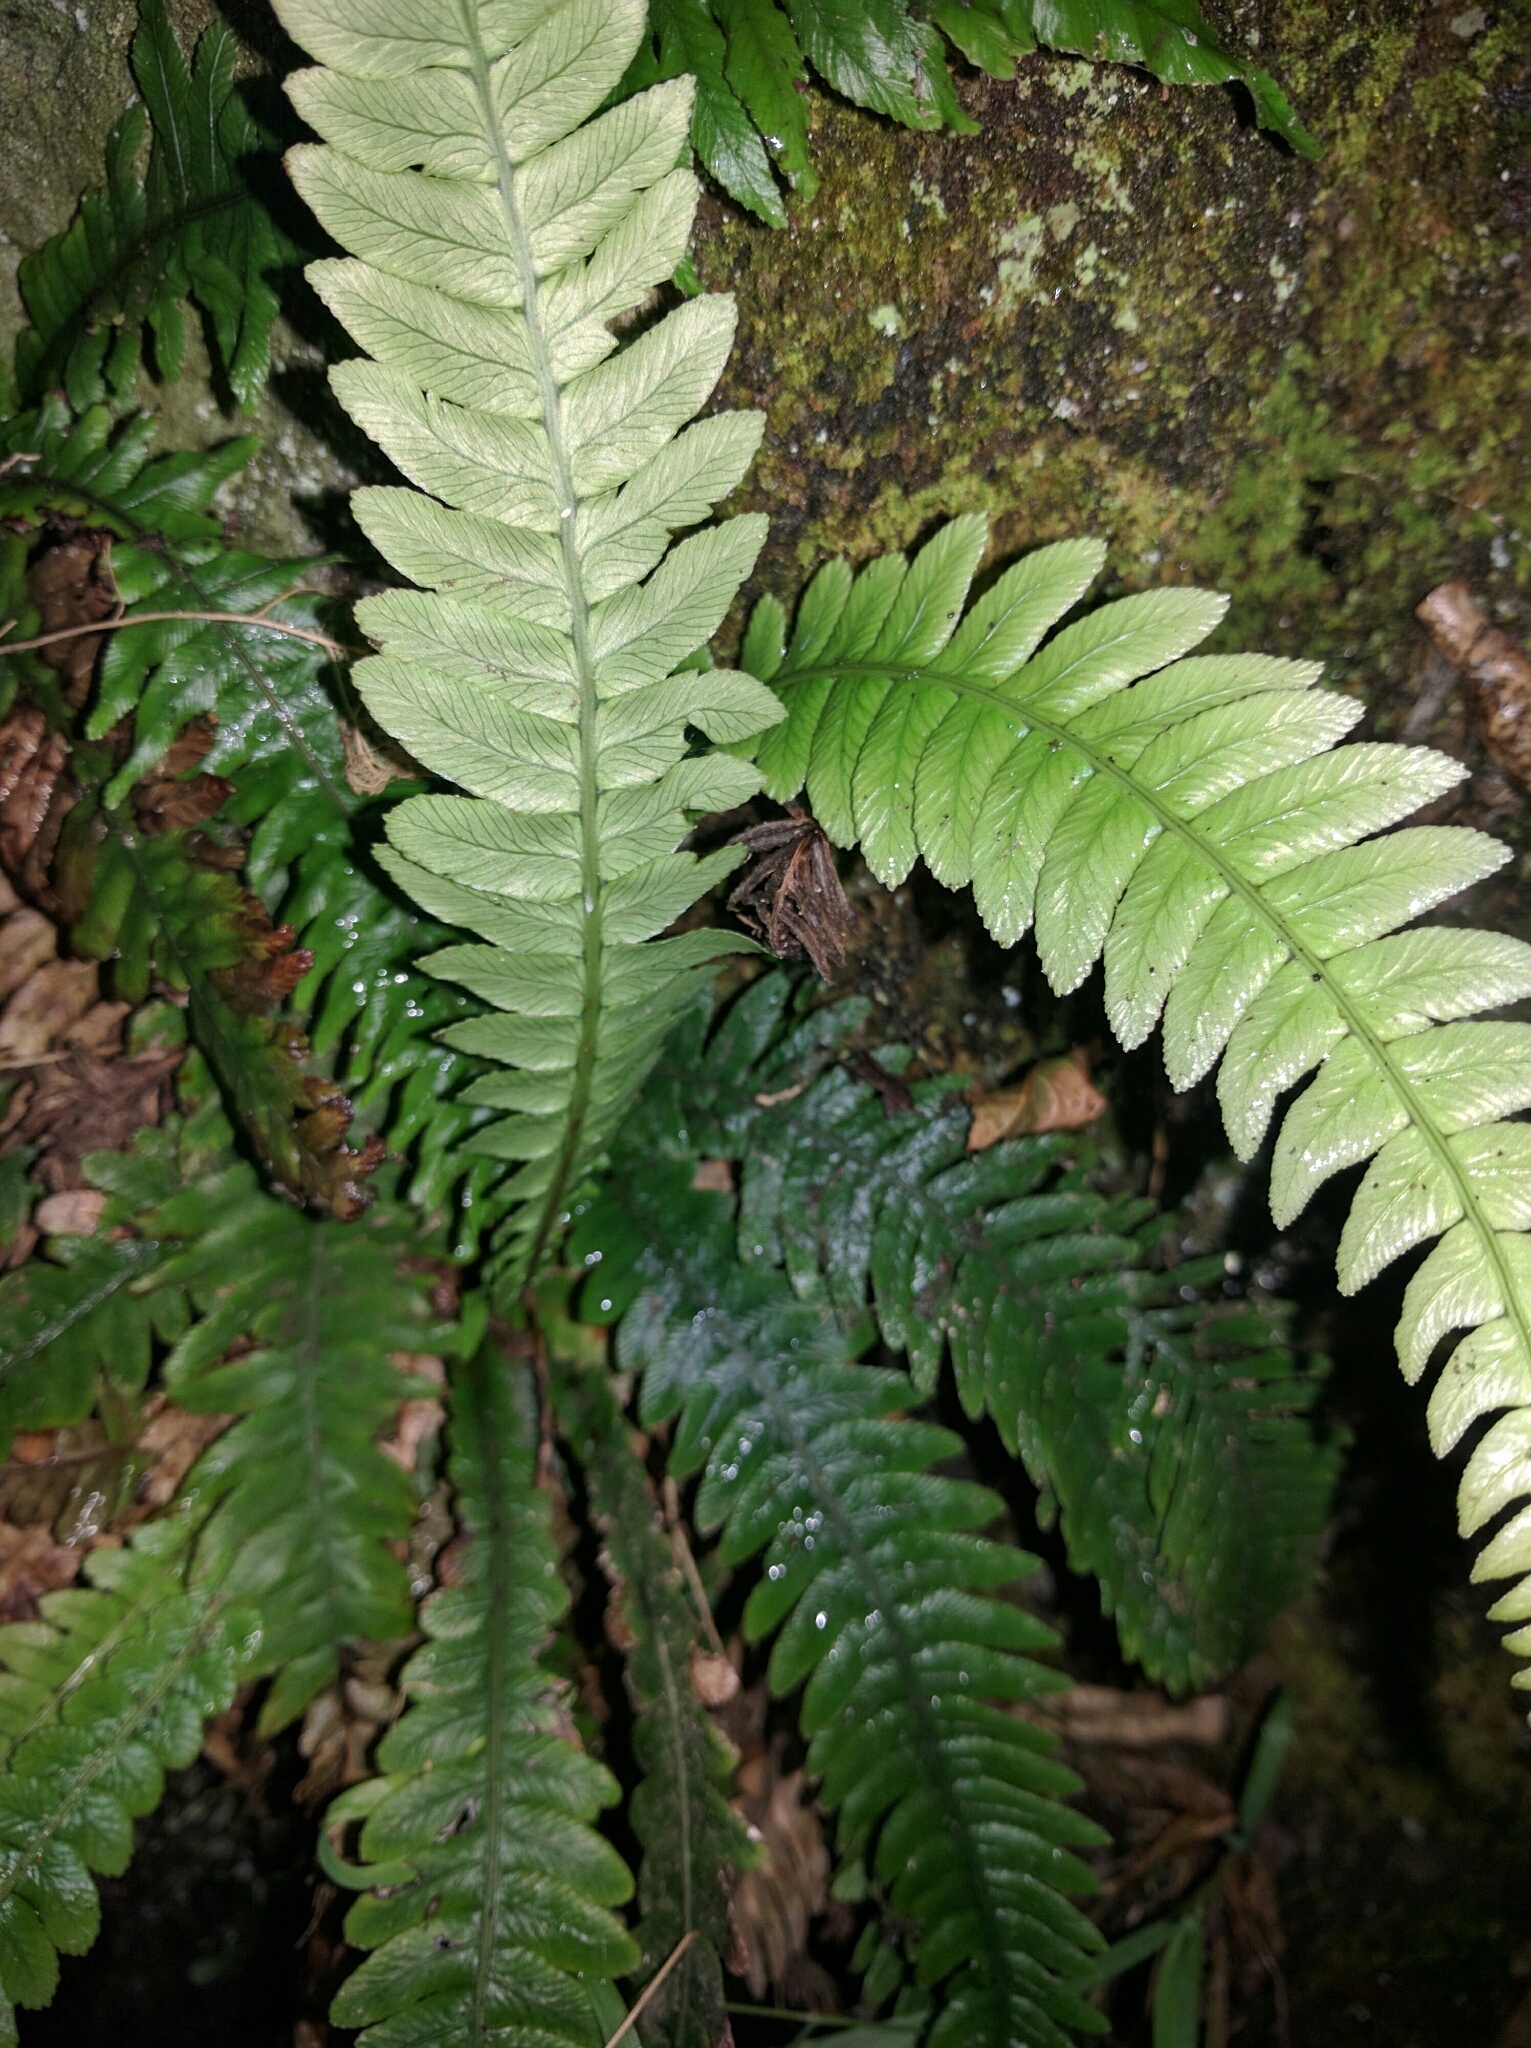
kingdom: Plantae
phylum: Tracheophyta
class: Polypodiopsida
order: Polypodiales
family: Blechnaceae
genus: Austroblechnum
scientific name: Austroblechnum lanceolatum
